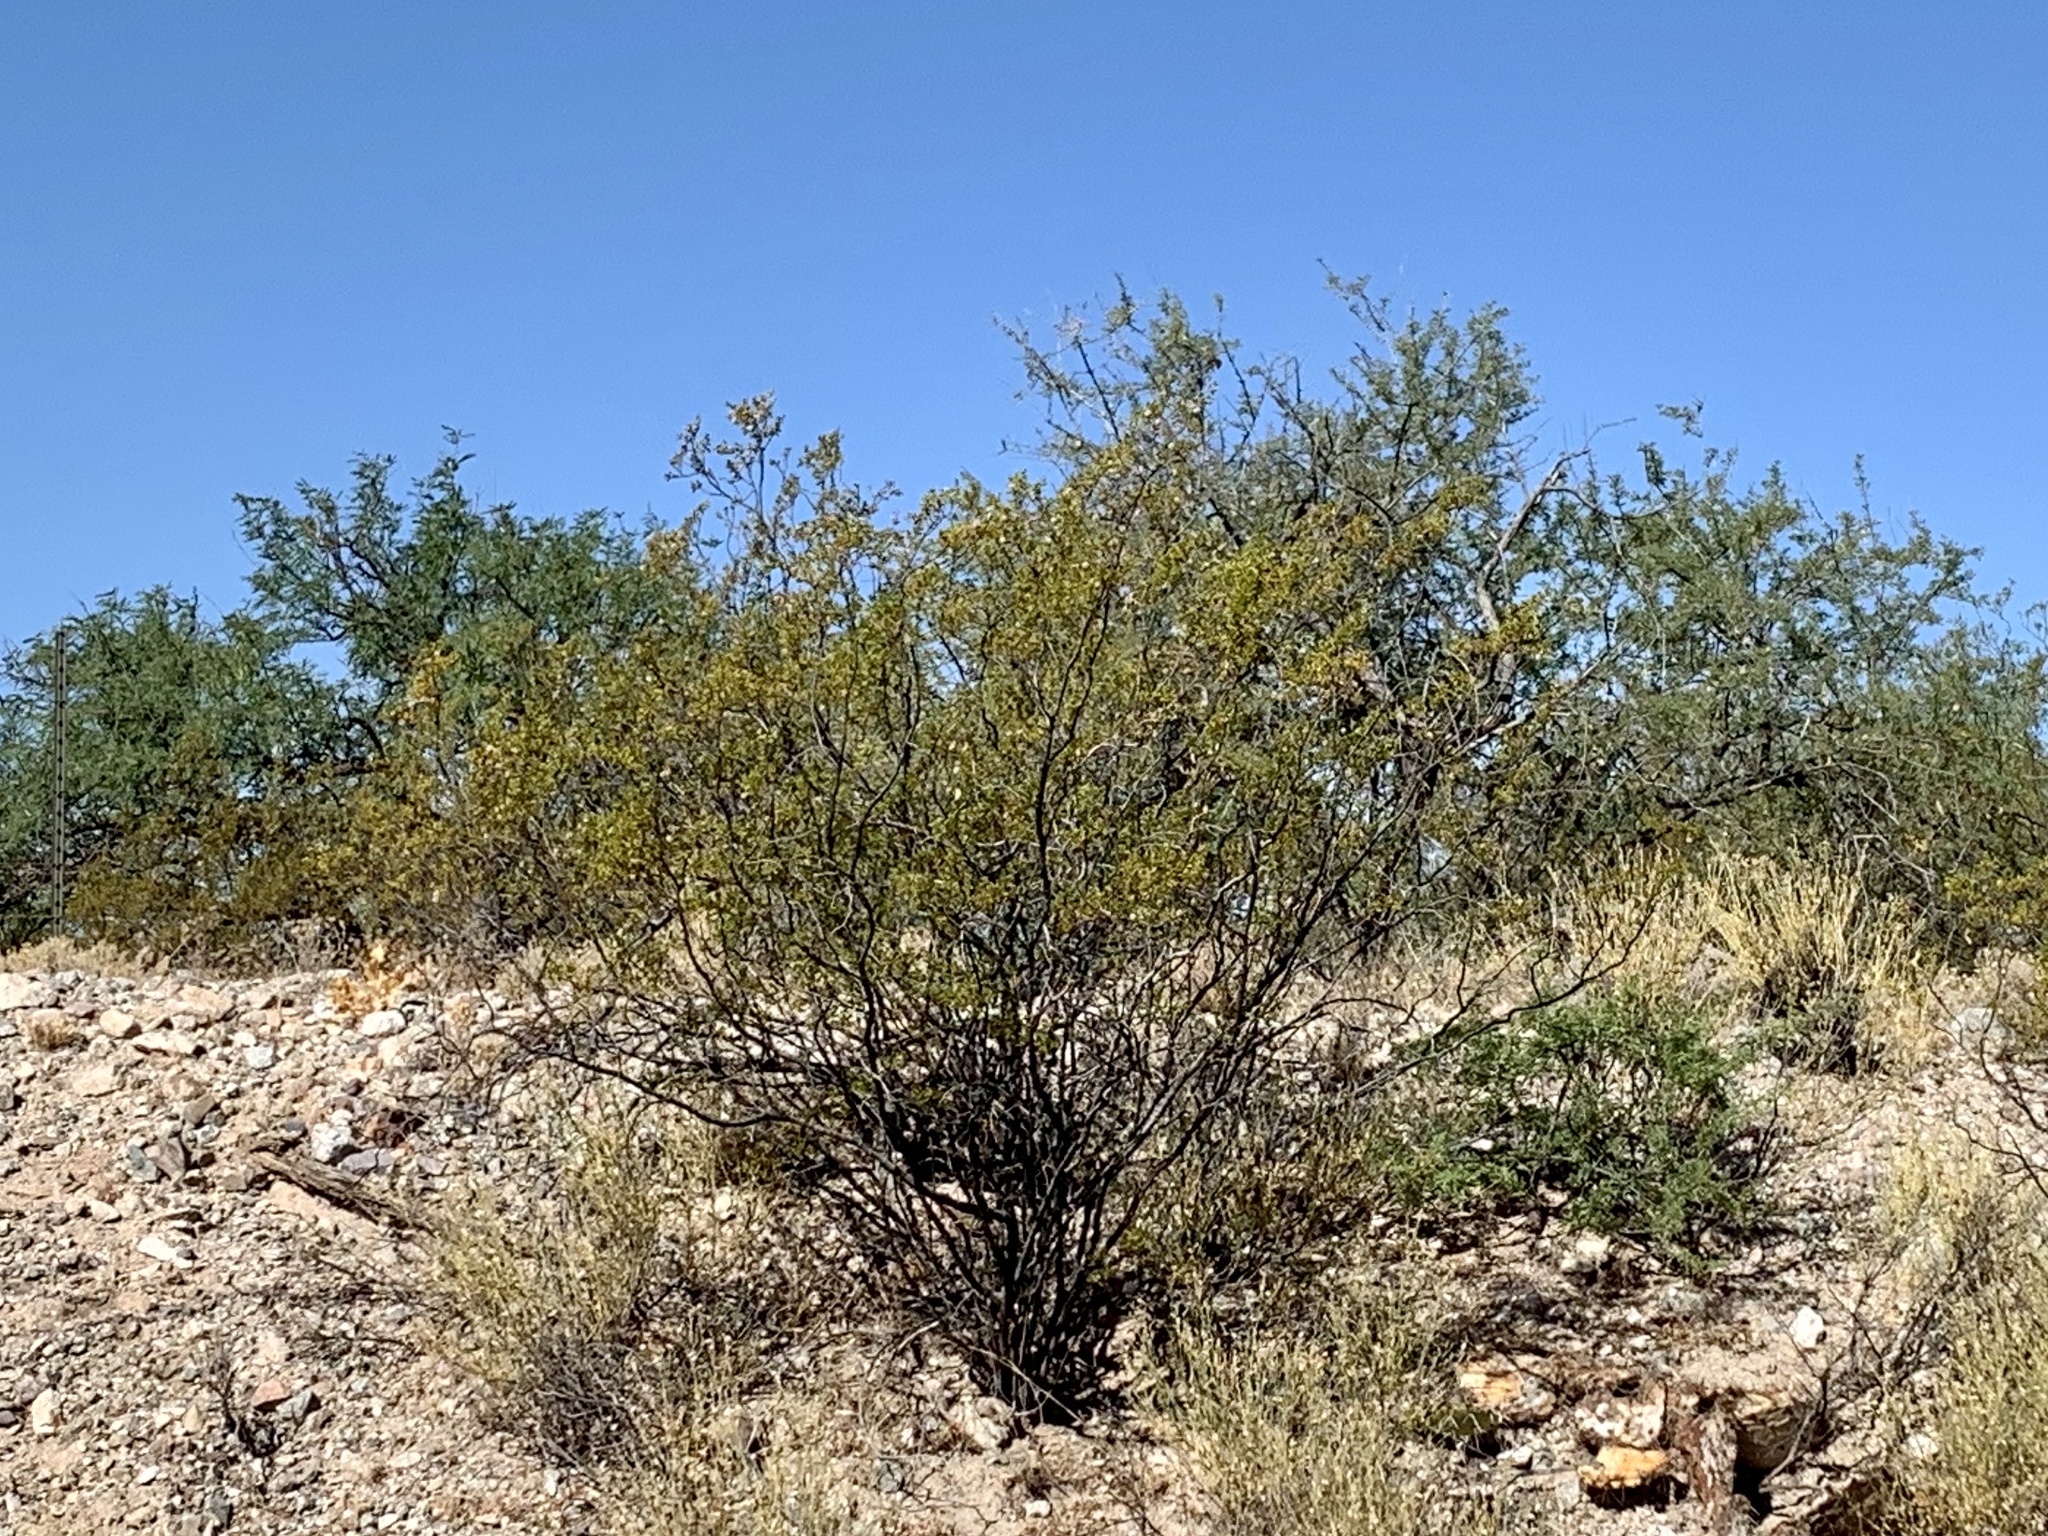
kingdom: Plantae
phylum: Tracheophyta
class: Magnoliopsida
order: Zygophyllales
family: Zygophyllaceae
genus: Larrea
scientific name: Larrea tridentata
